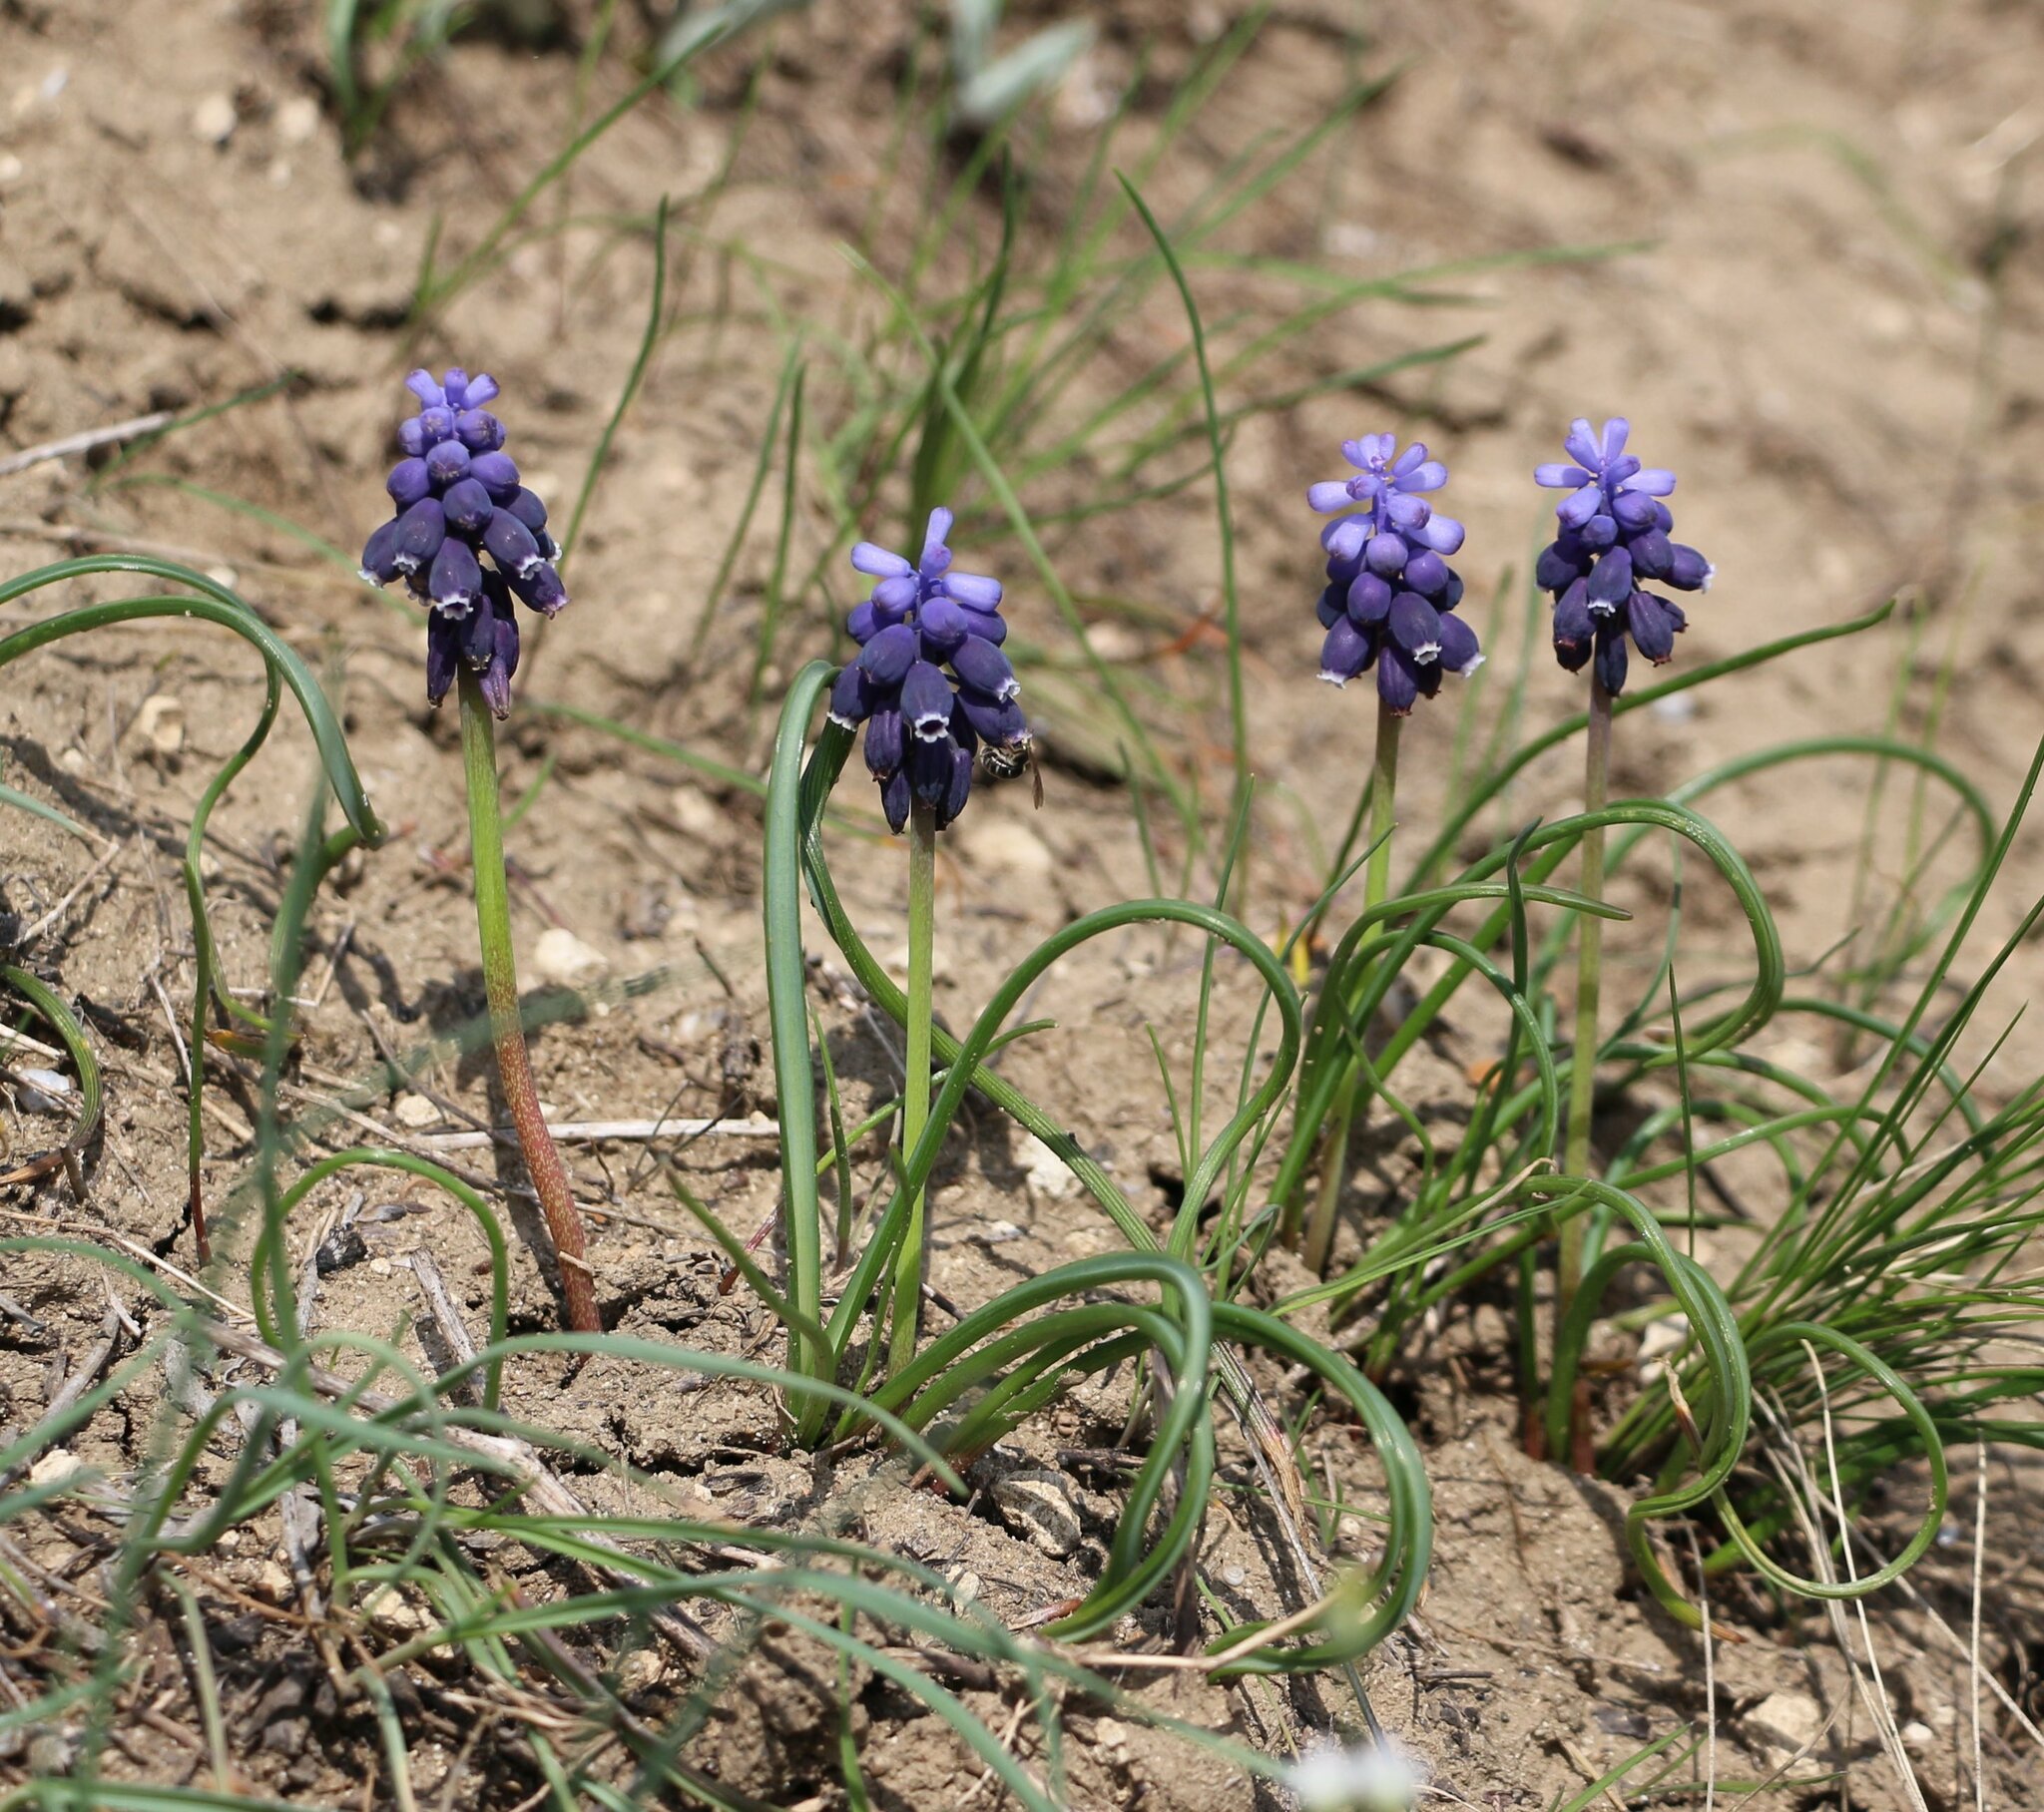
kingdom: Plantae
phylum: Tracheophyta
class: Liliopsida
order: Asparagales
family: Asparagaceae
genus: Muscari
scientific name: Muscari neglectum
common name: Grape-hyacinth
